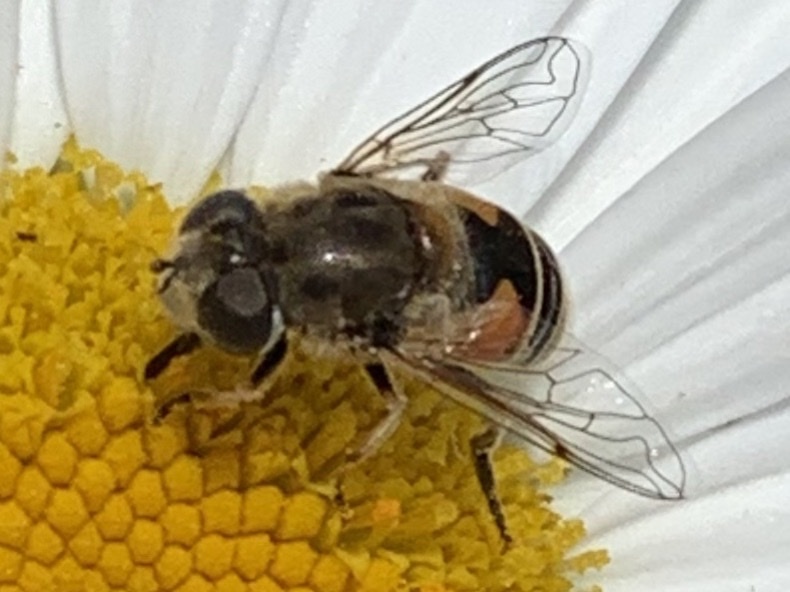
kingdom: Animalia
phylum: Arthropoda
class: Insecta
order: Diptera
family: Syrphidae
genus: Eristalis
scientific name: Eristalis arbustorum
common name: Hover fly
